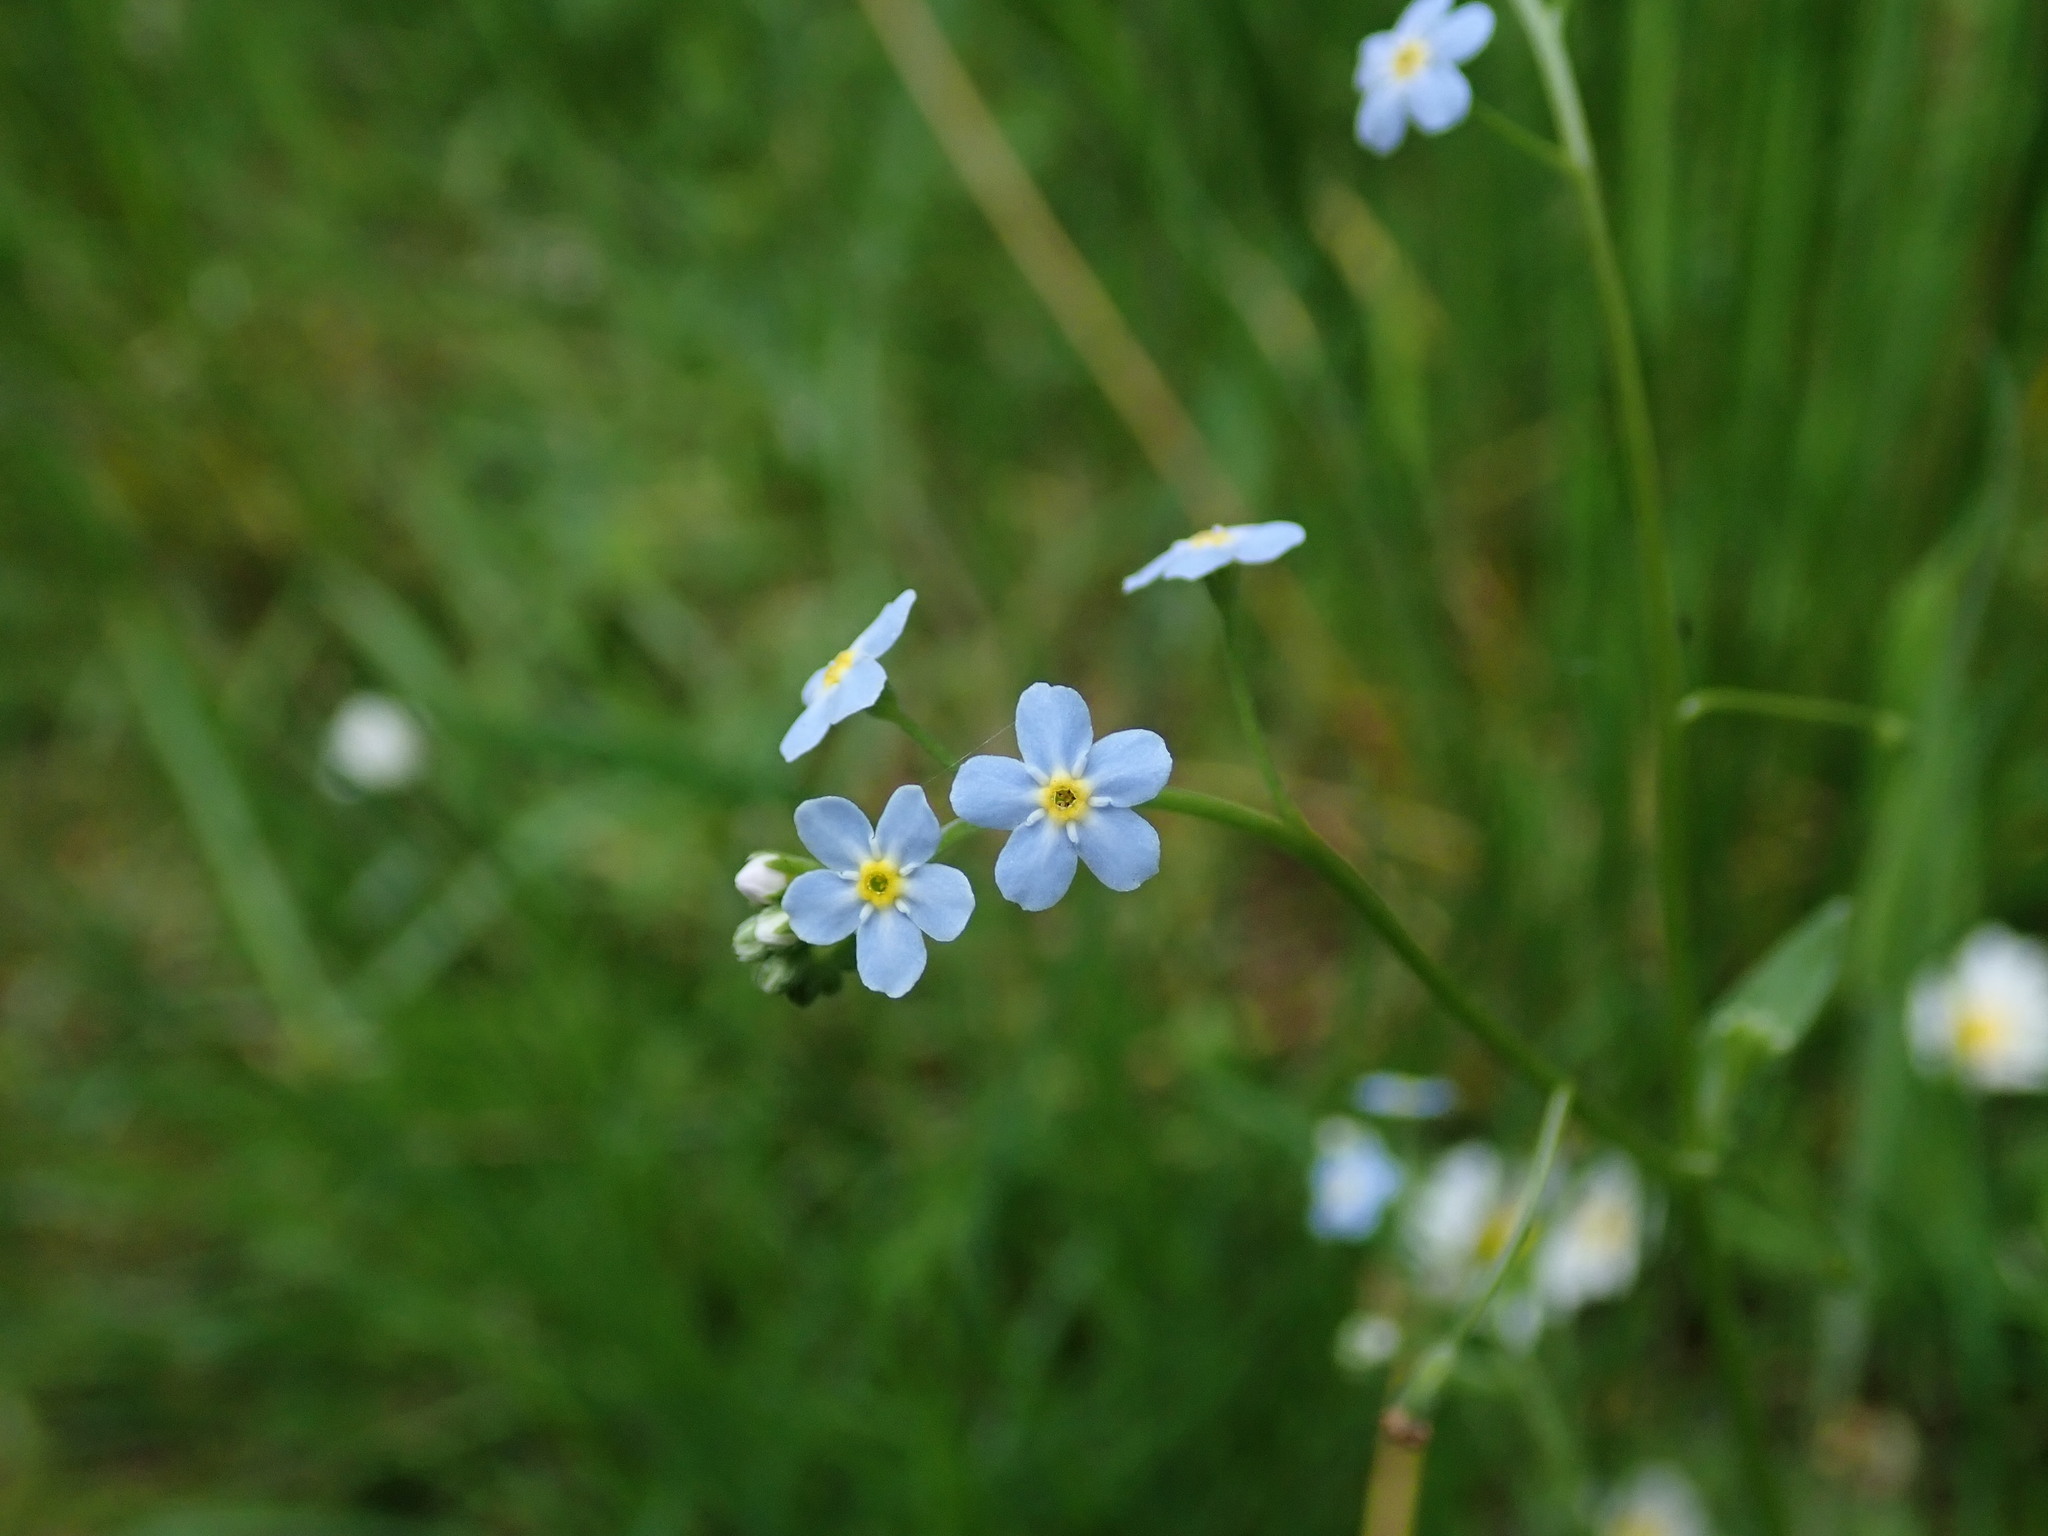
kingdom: Plantae
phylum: Tracheophyta
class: Magnoliopsida
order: Boraginales
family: Boraginaceae
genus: Myosotis
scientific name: Myosotis sylvatica
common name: Wood forget-me-not
